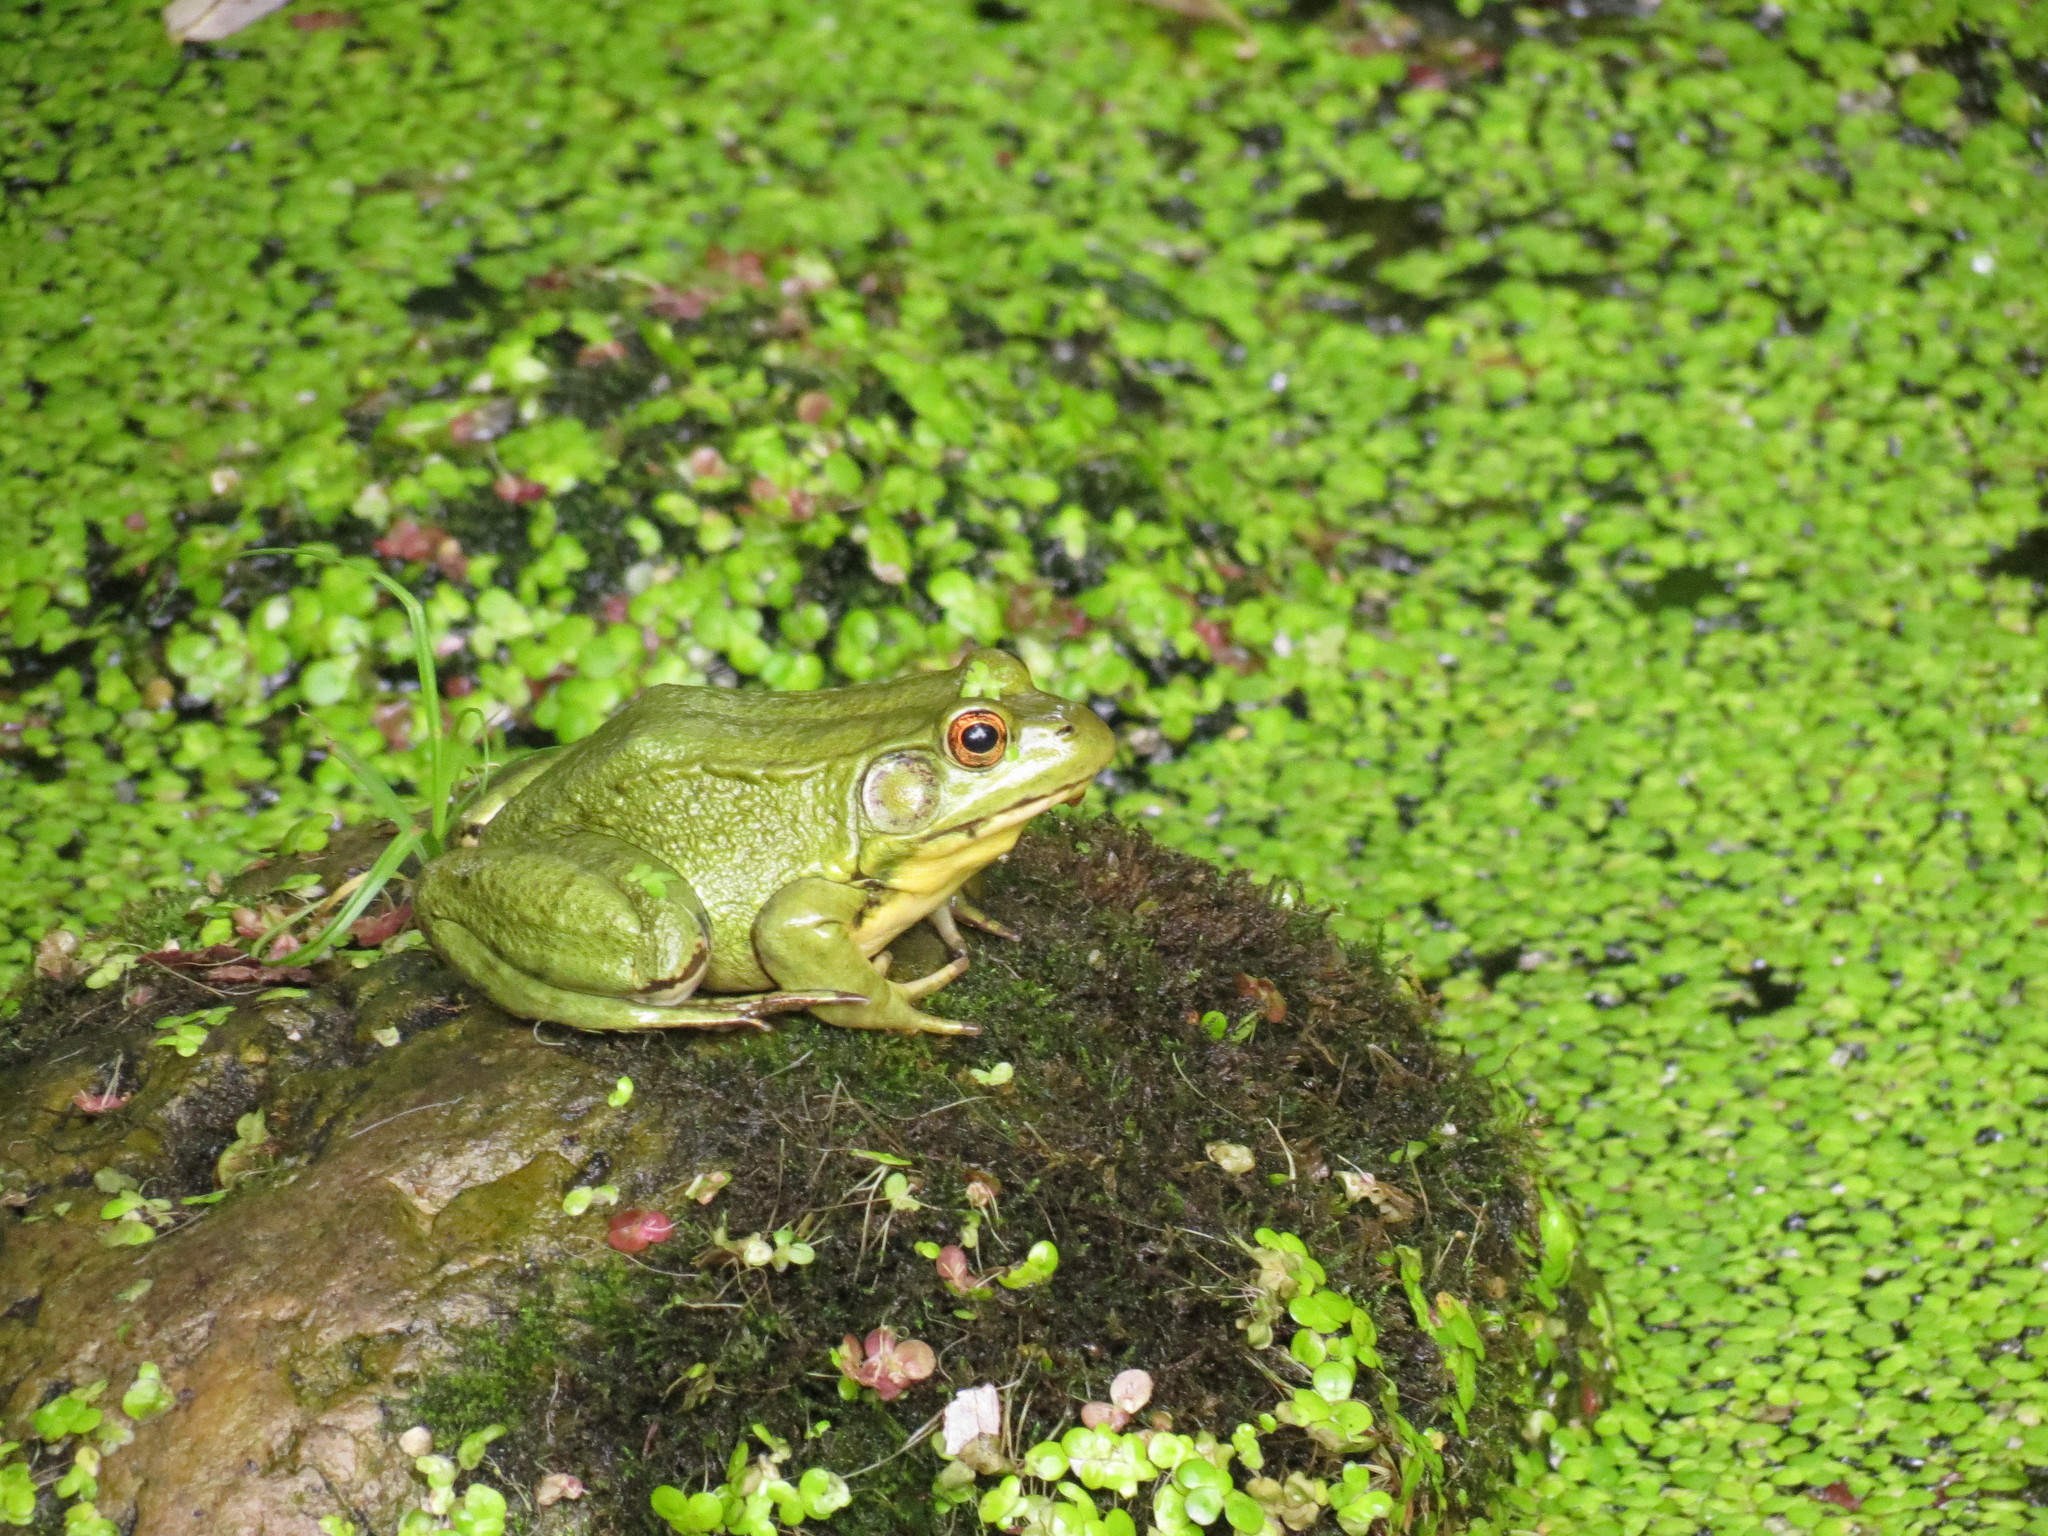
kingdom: Animalia
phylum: Chordata
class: Amphibia
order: Anura
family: Ranidae
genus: Lithobates
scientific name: Lithobates clamitans
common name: Green frog
